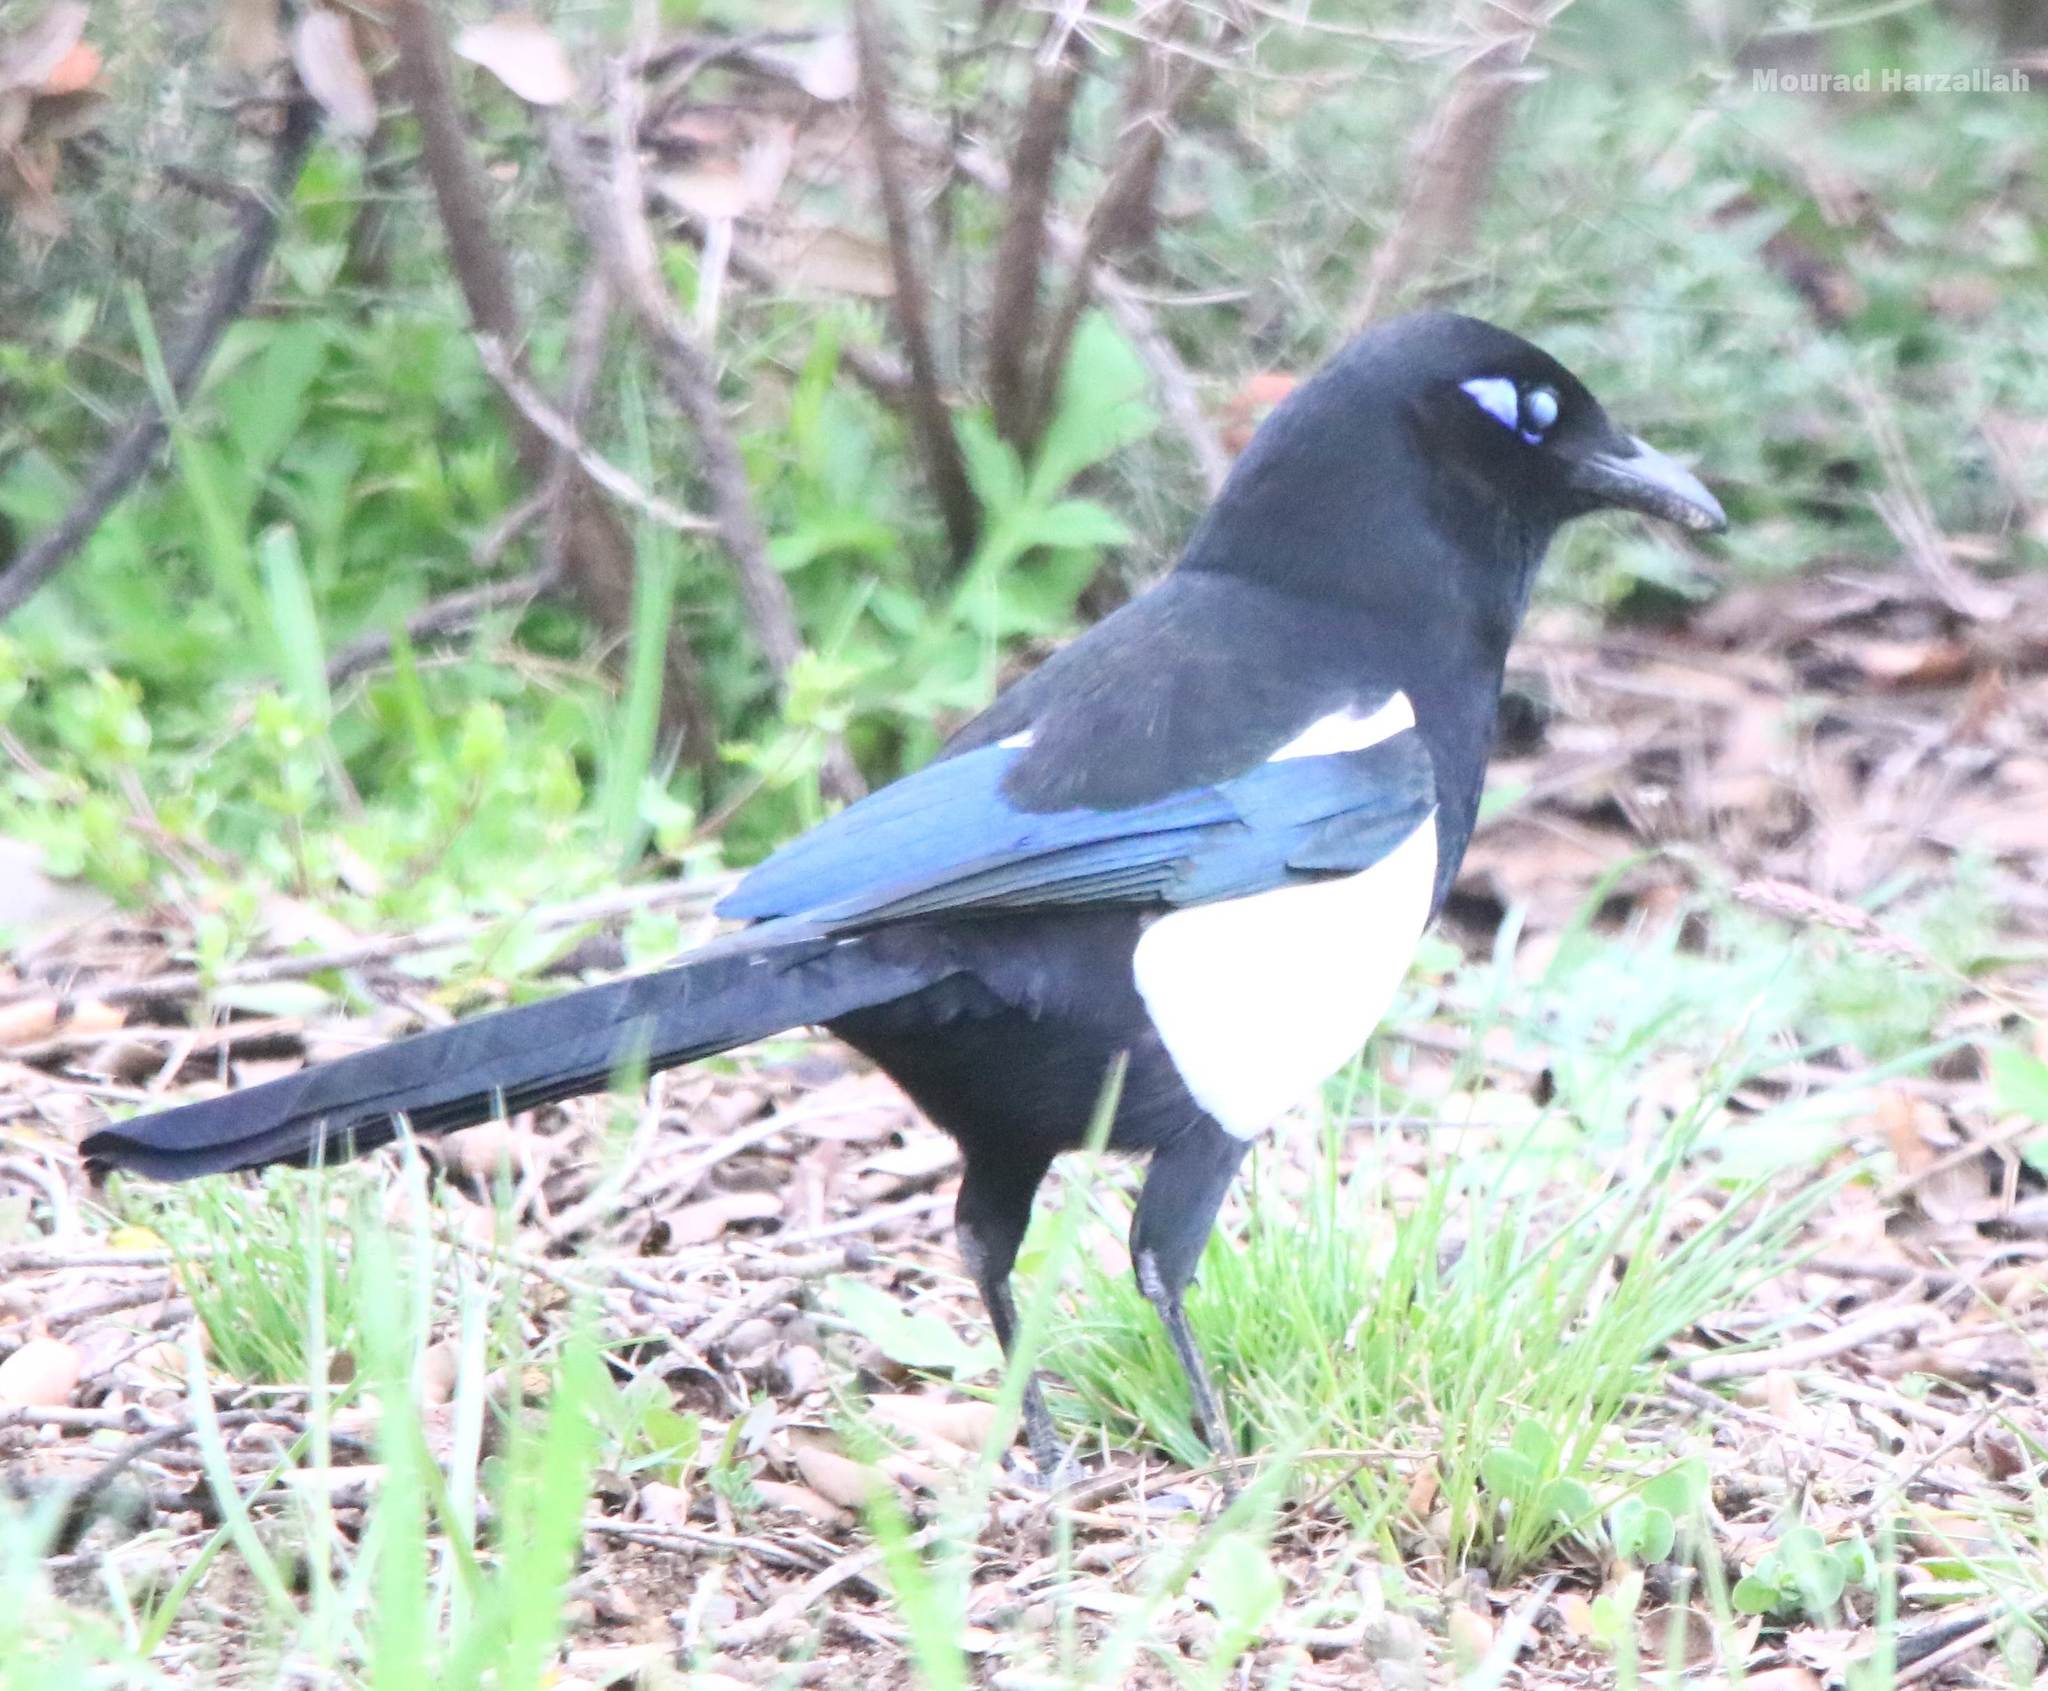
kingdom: Animalia
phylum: Chordata
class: Aves
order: Passeriformes
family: Corvidae
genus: Pica
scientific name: Pica mauritanica
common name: Maghreb magpie
